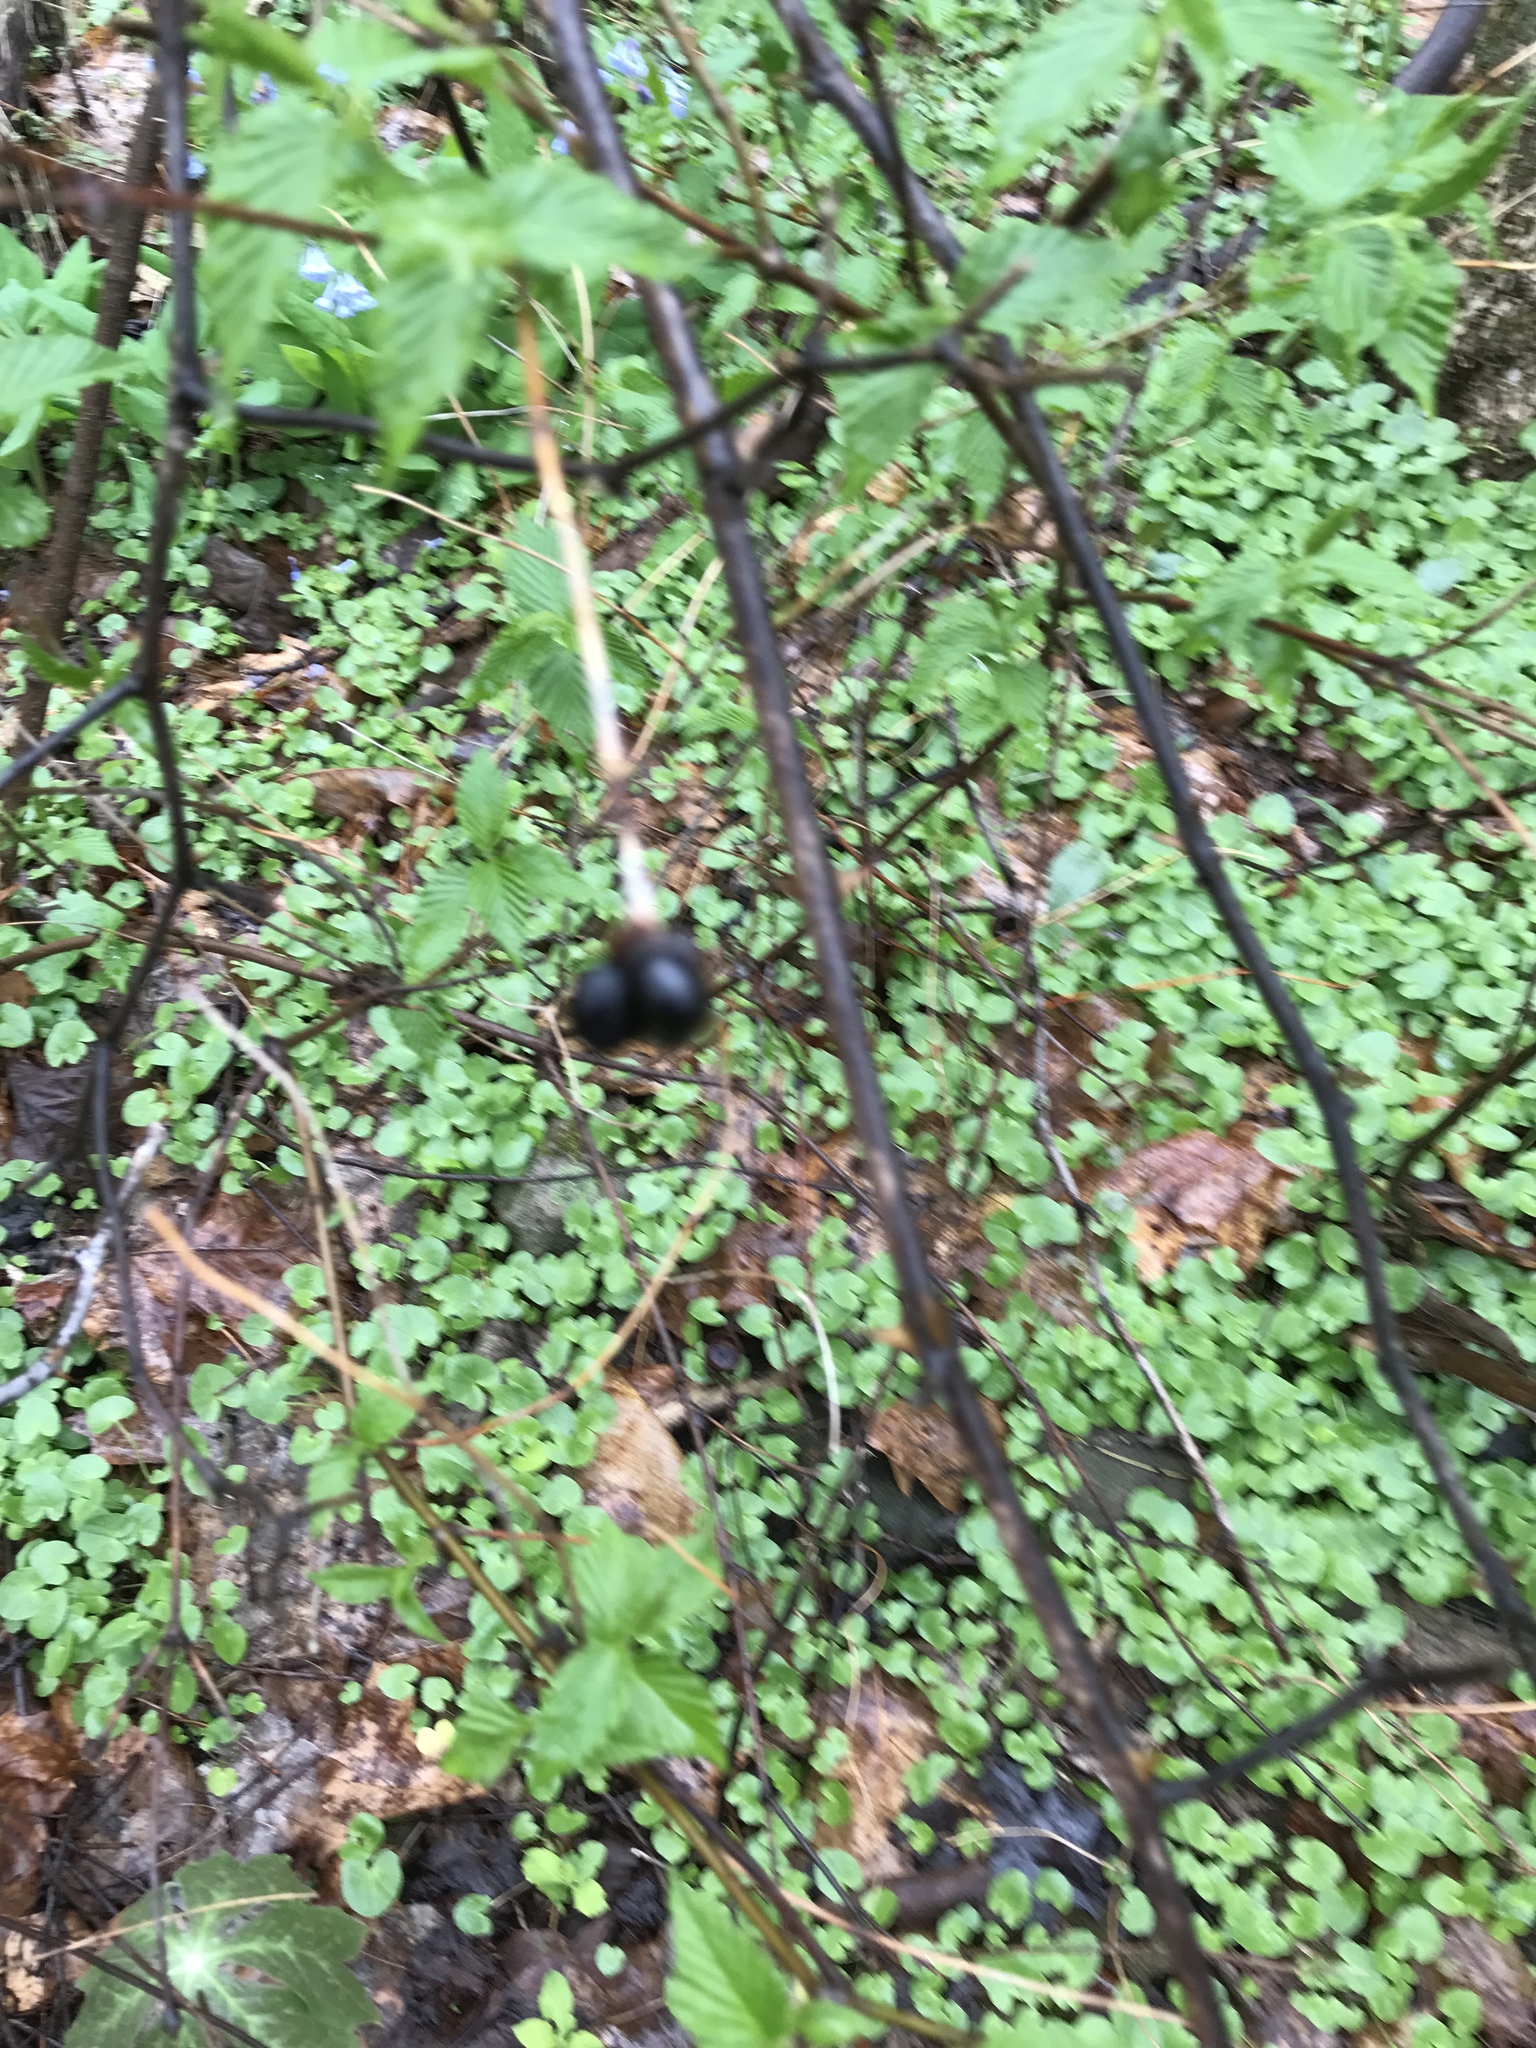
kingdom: Plantae
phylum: Tracheophyta
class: Magnoliopsida
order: Rosales
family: Rosaceae
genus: Rhodotypos
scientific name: Rhodotypos scandens
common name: Jetbead
